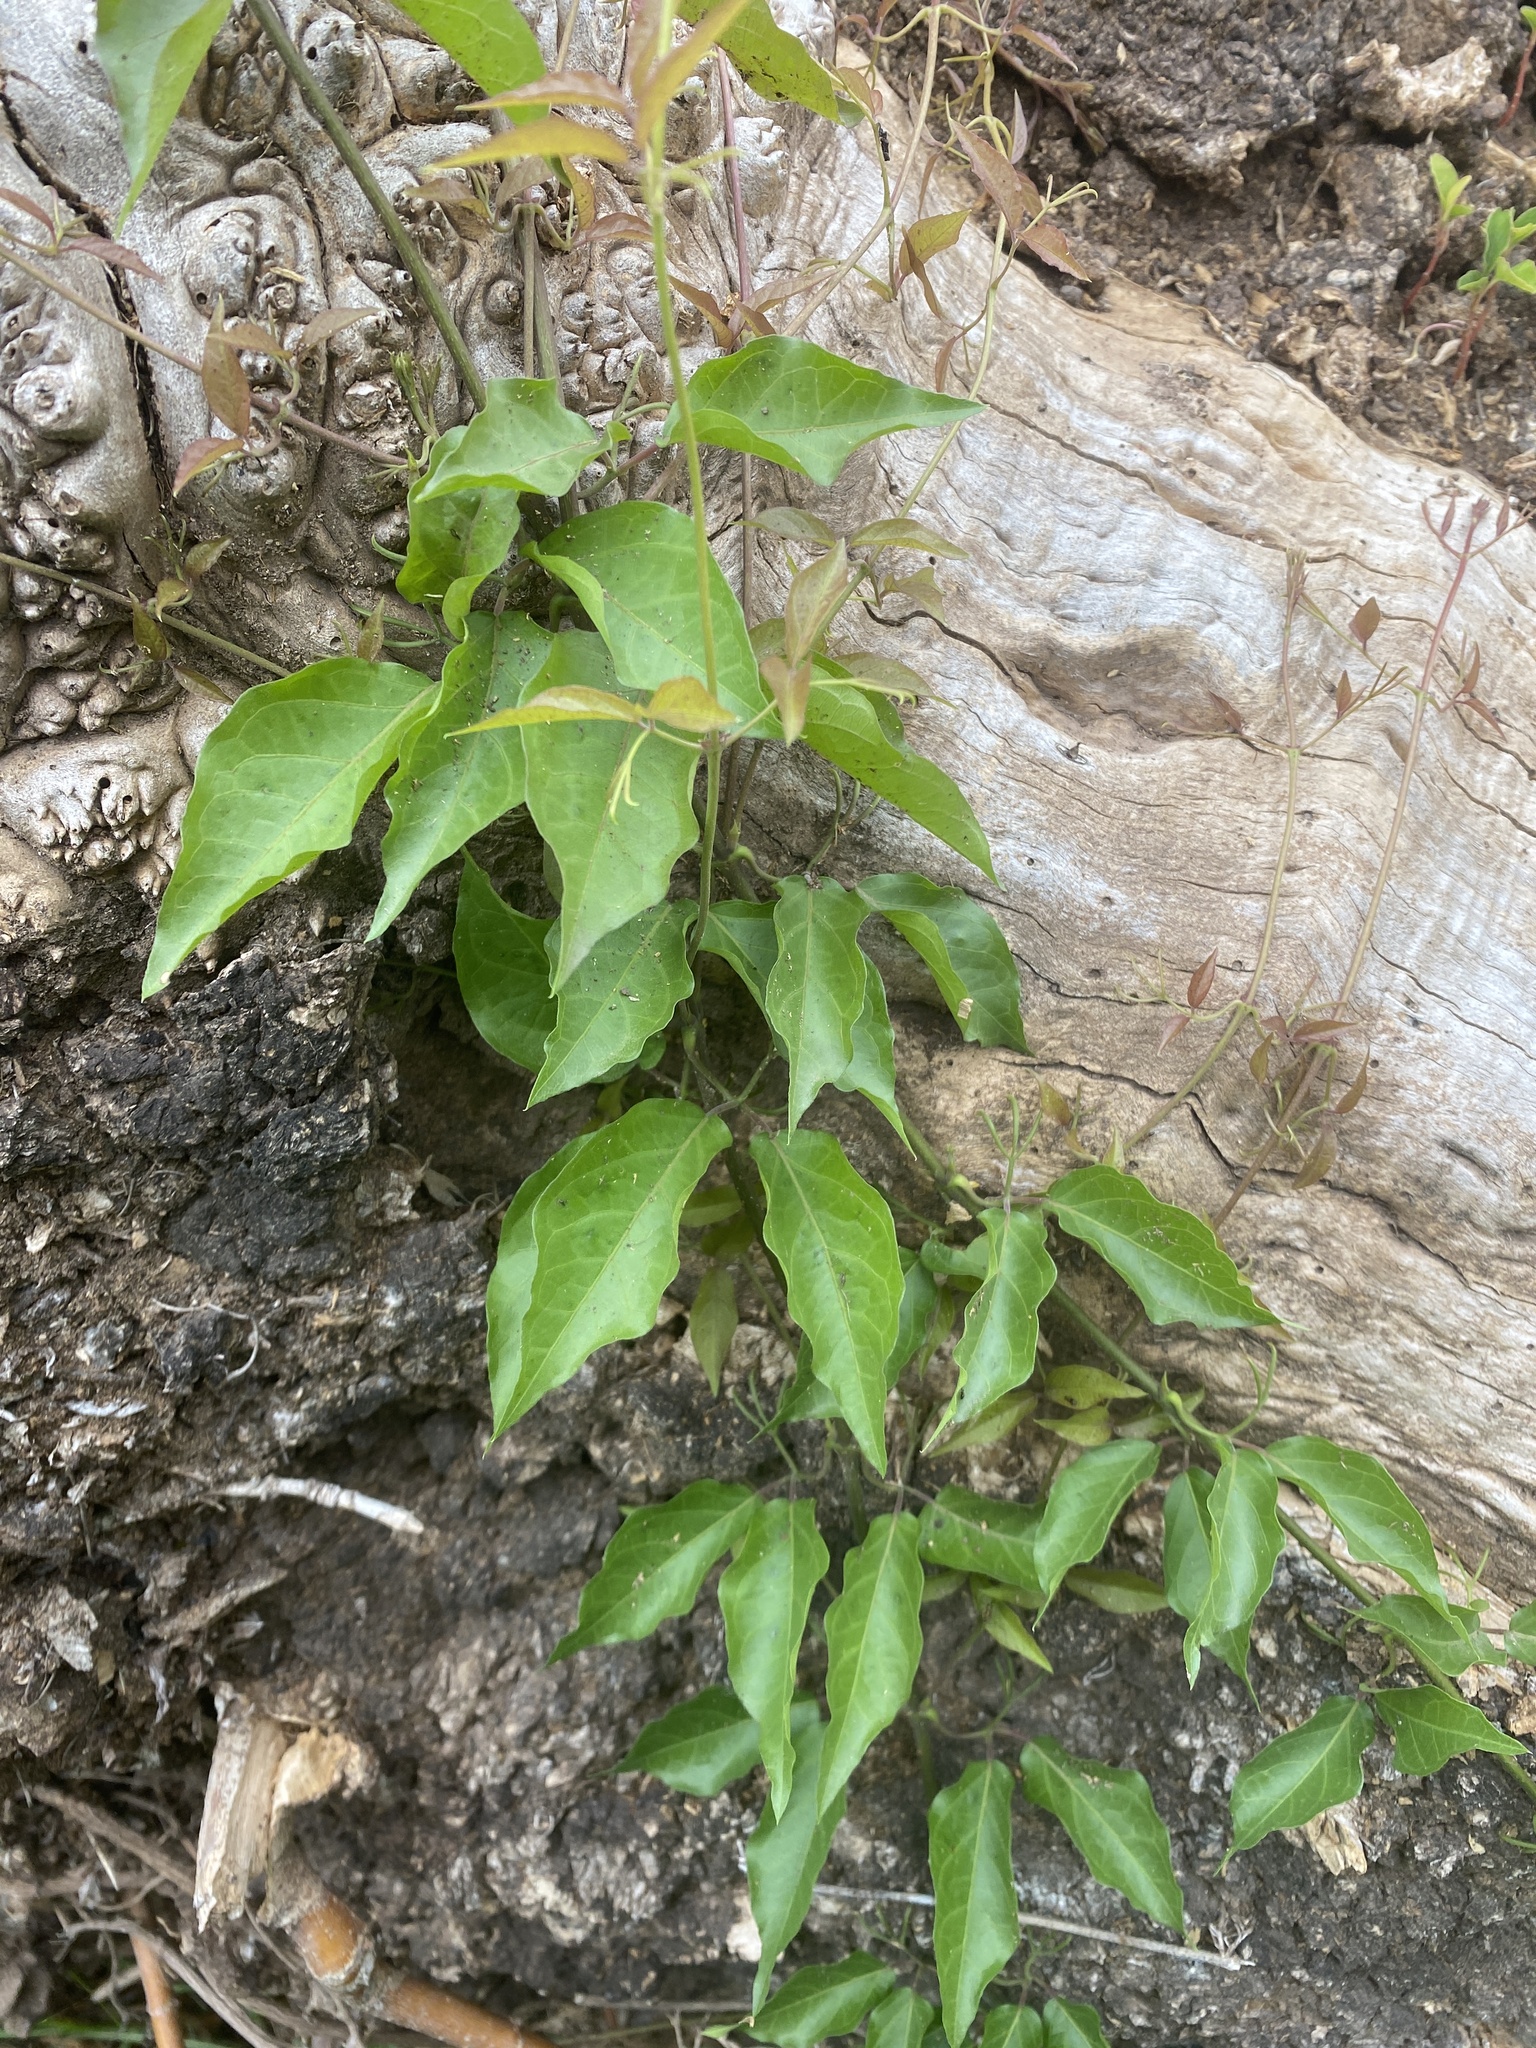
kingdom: Plantae
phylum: Tracheophyta
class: Magnoliopsida
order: Lamiales
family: Bignoniaceae
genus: Dolichandra
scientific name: Dolichandra unguis-cati
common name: Catclaw vine
